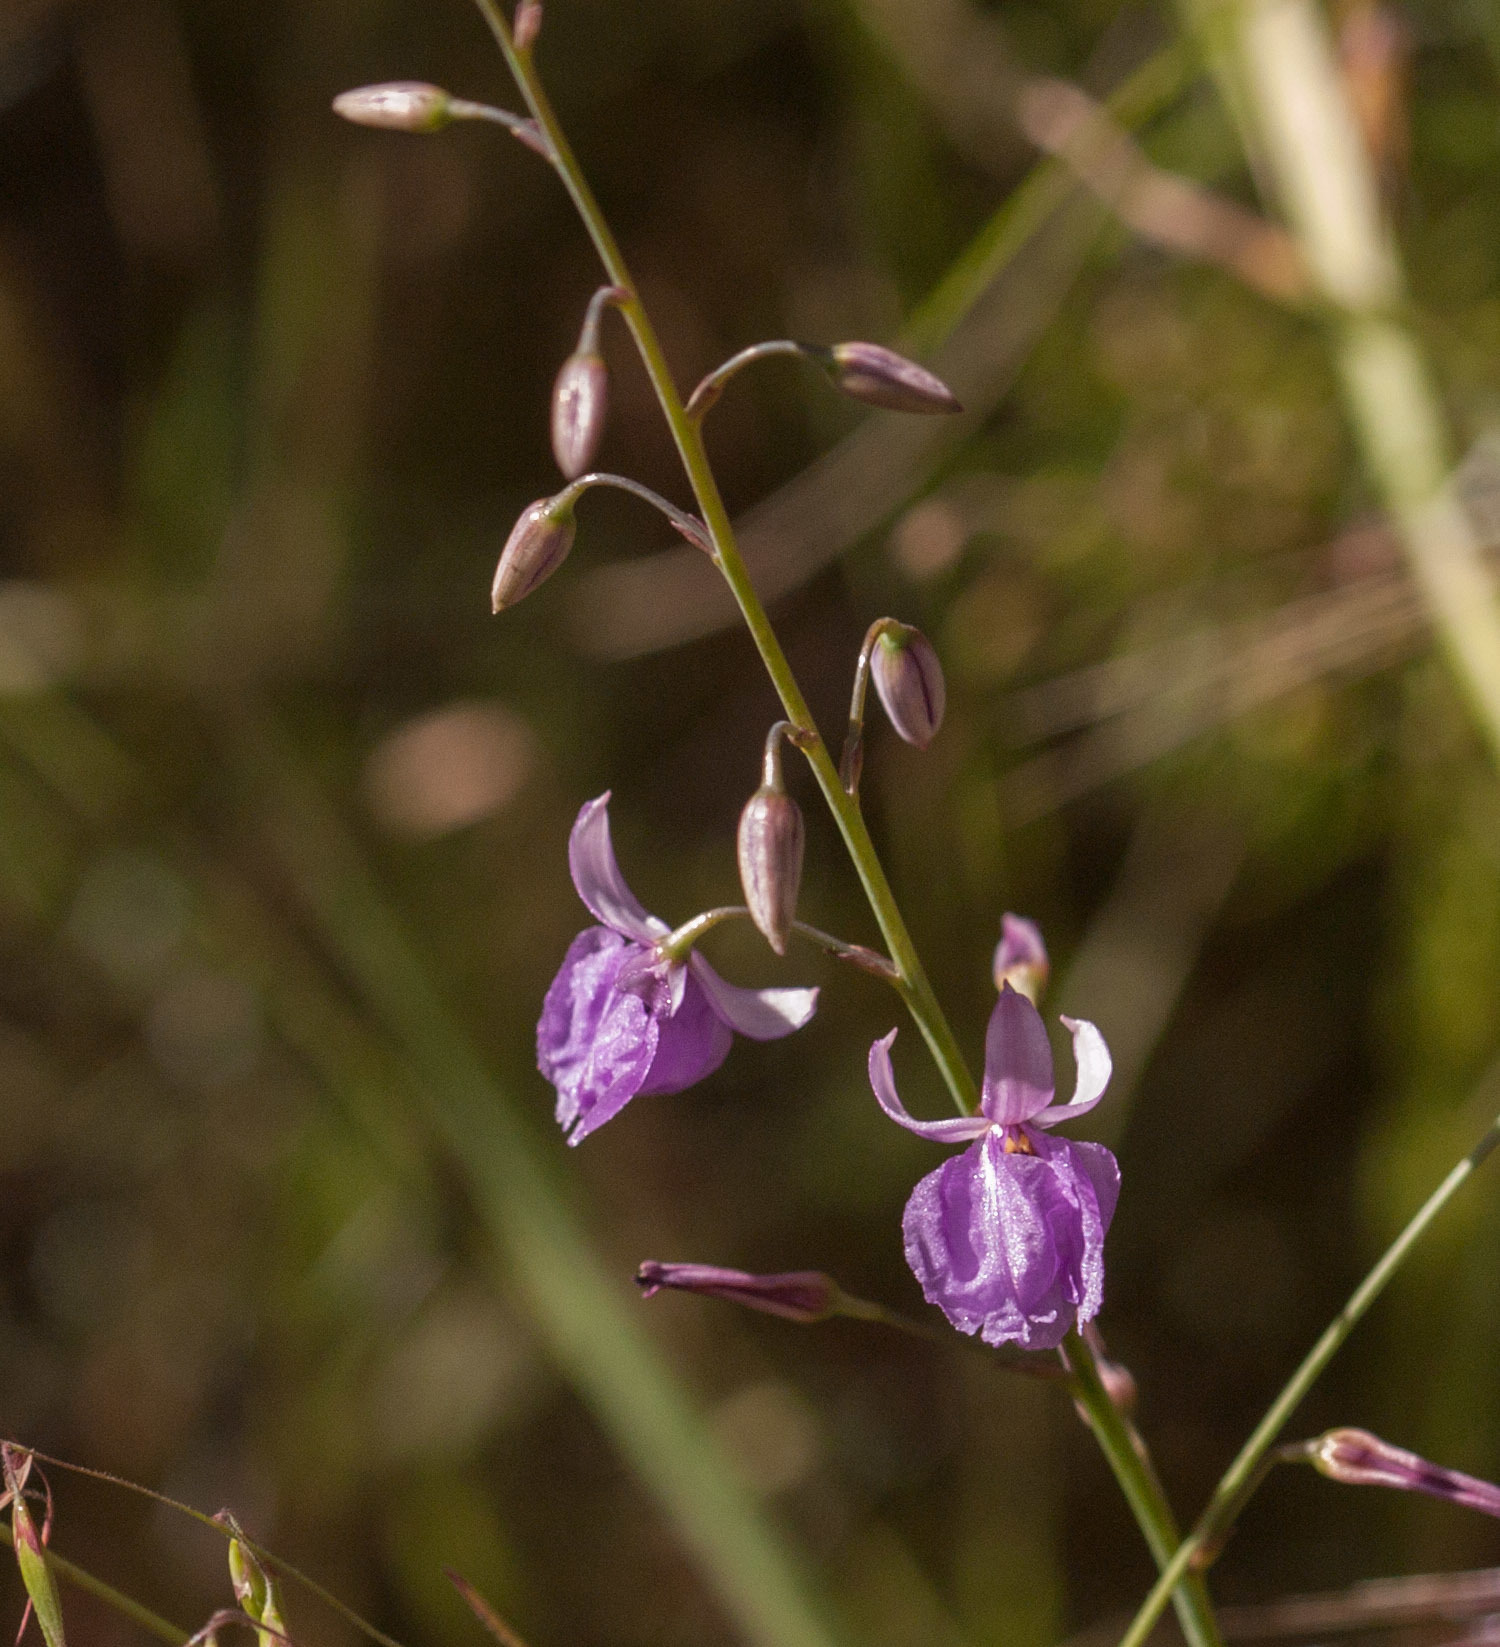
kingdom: Plantae
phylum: Tracheophyta
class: Liliopsida
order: Asparagales
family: Asparagaceae
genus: Arthropodium
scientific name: Arthropodium strictum
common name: Chocolate-lily
